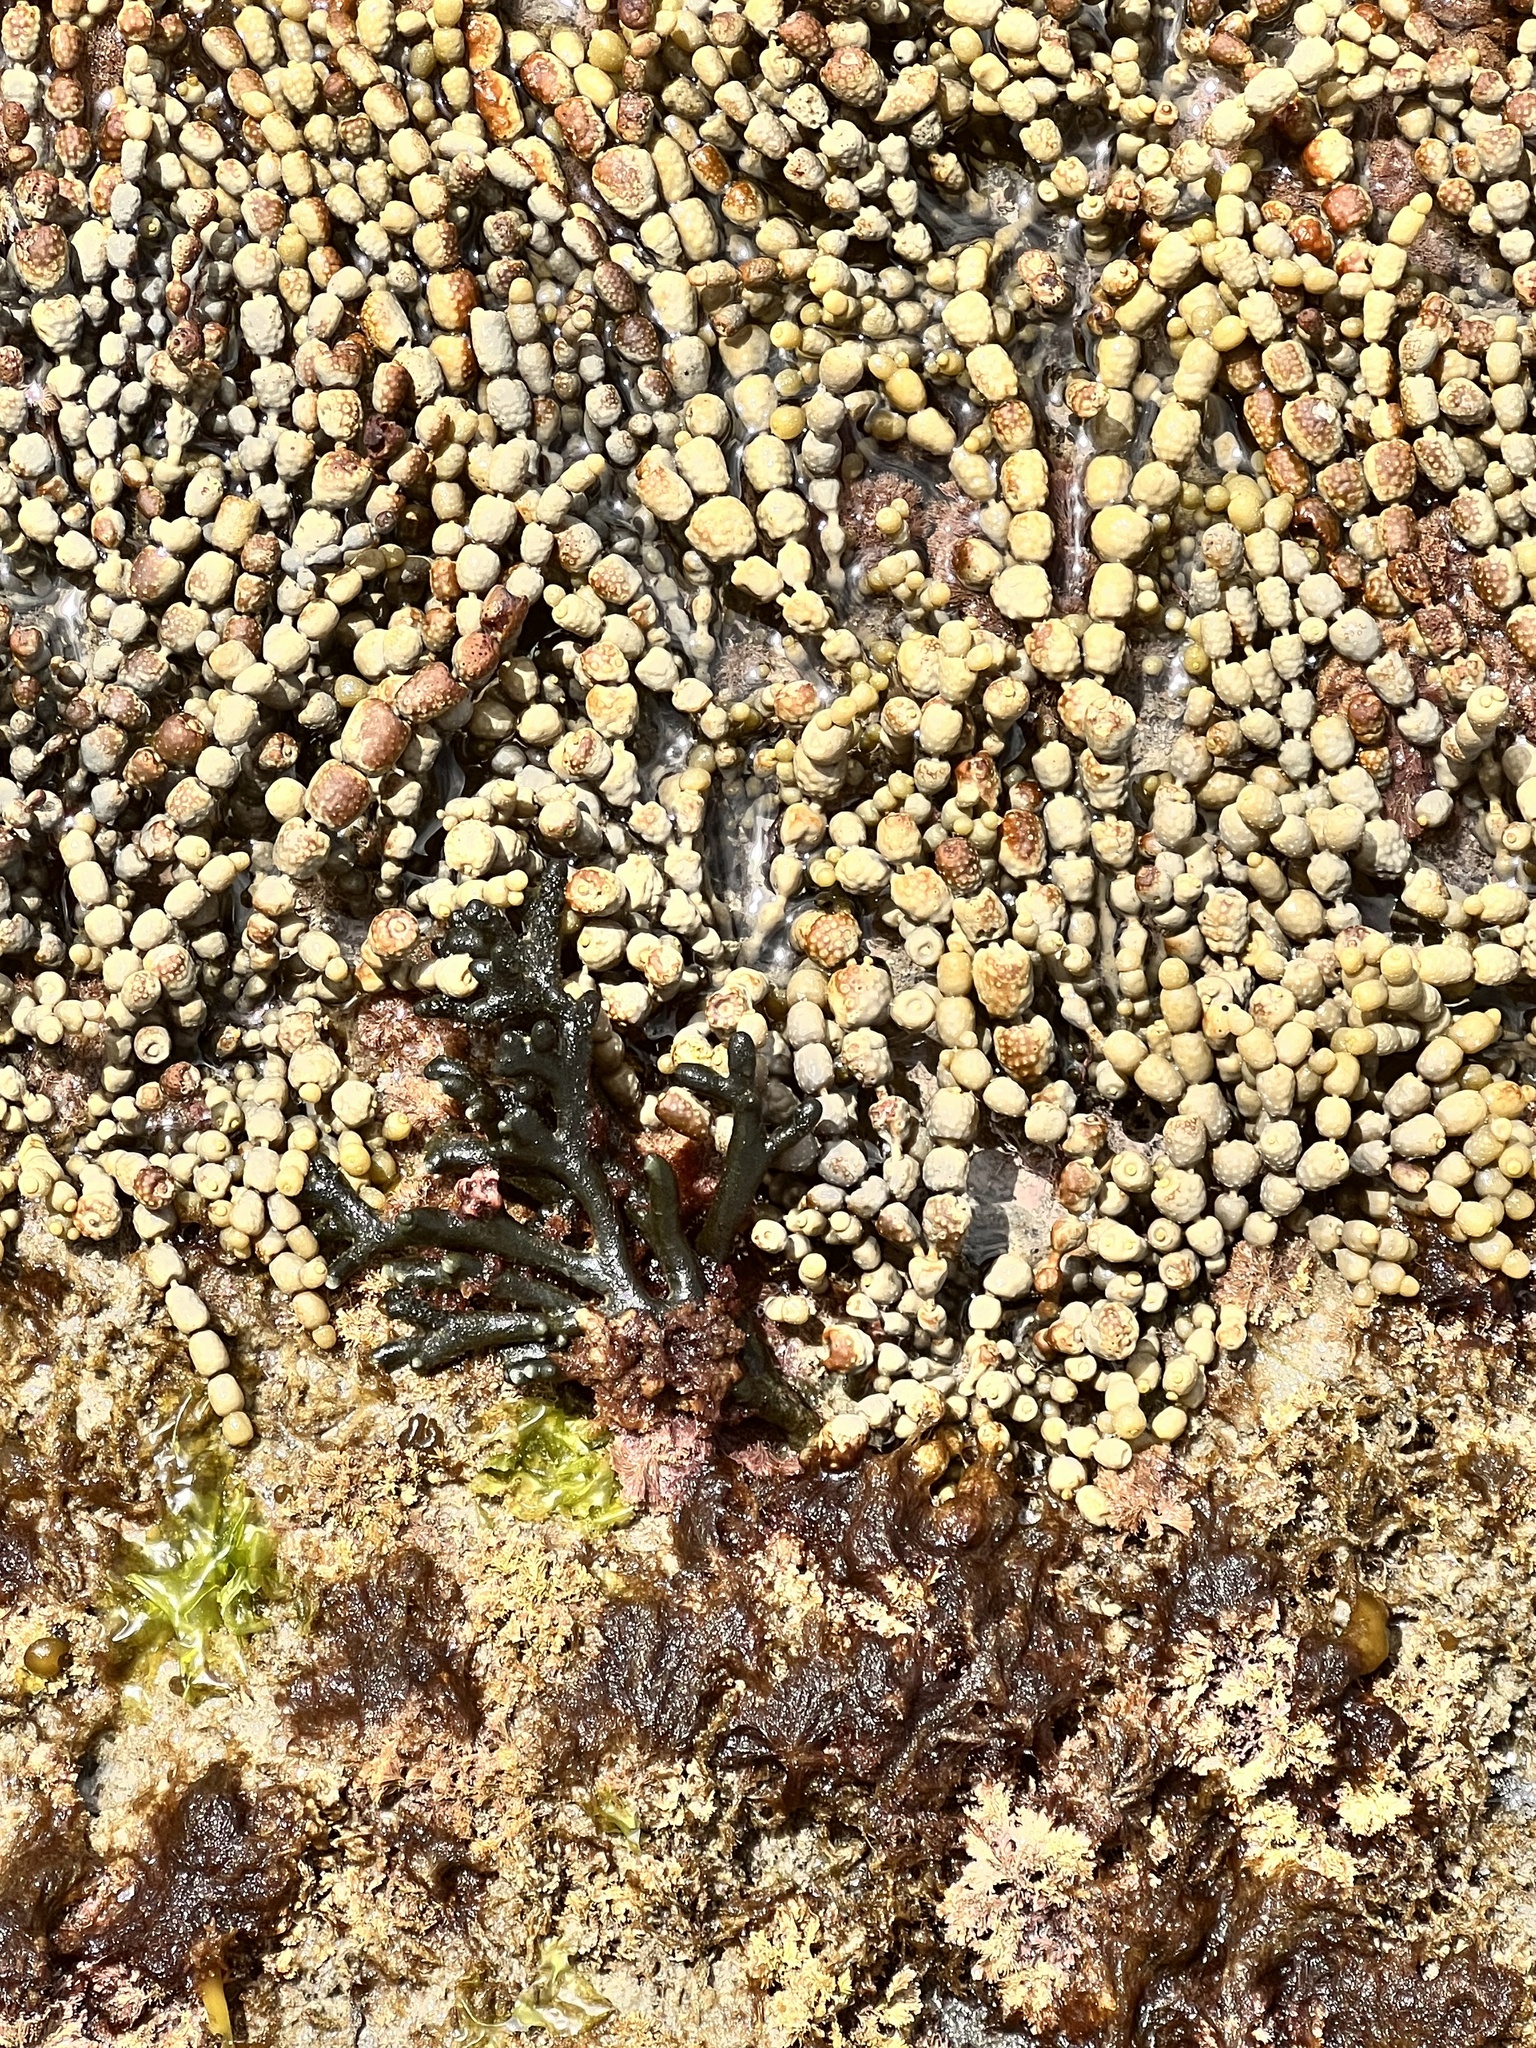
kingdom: Plantae
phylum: Chlorophyta
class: Ulvophyceae
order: Bryopsidales
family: Codiaceae
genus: Codium
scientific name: Codium fragile
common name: Dead man's fingers
